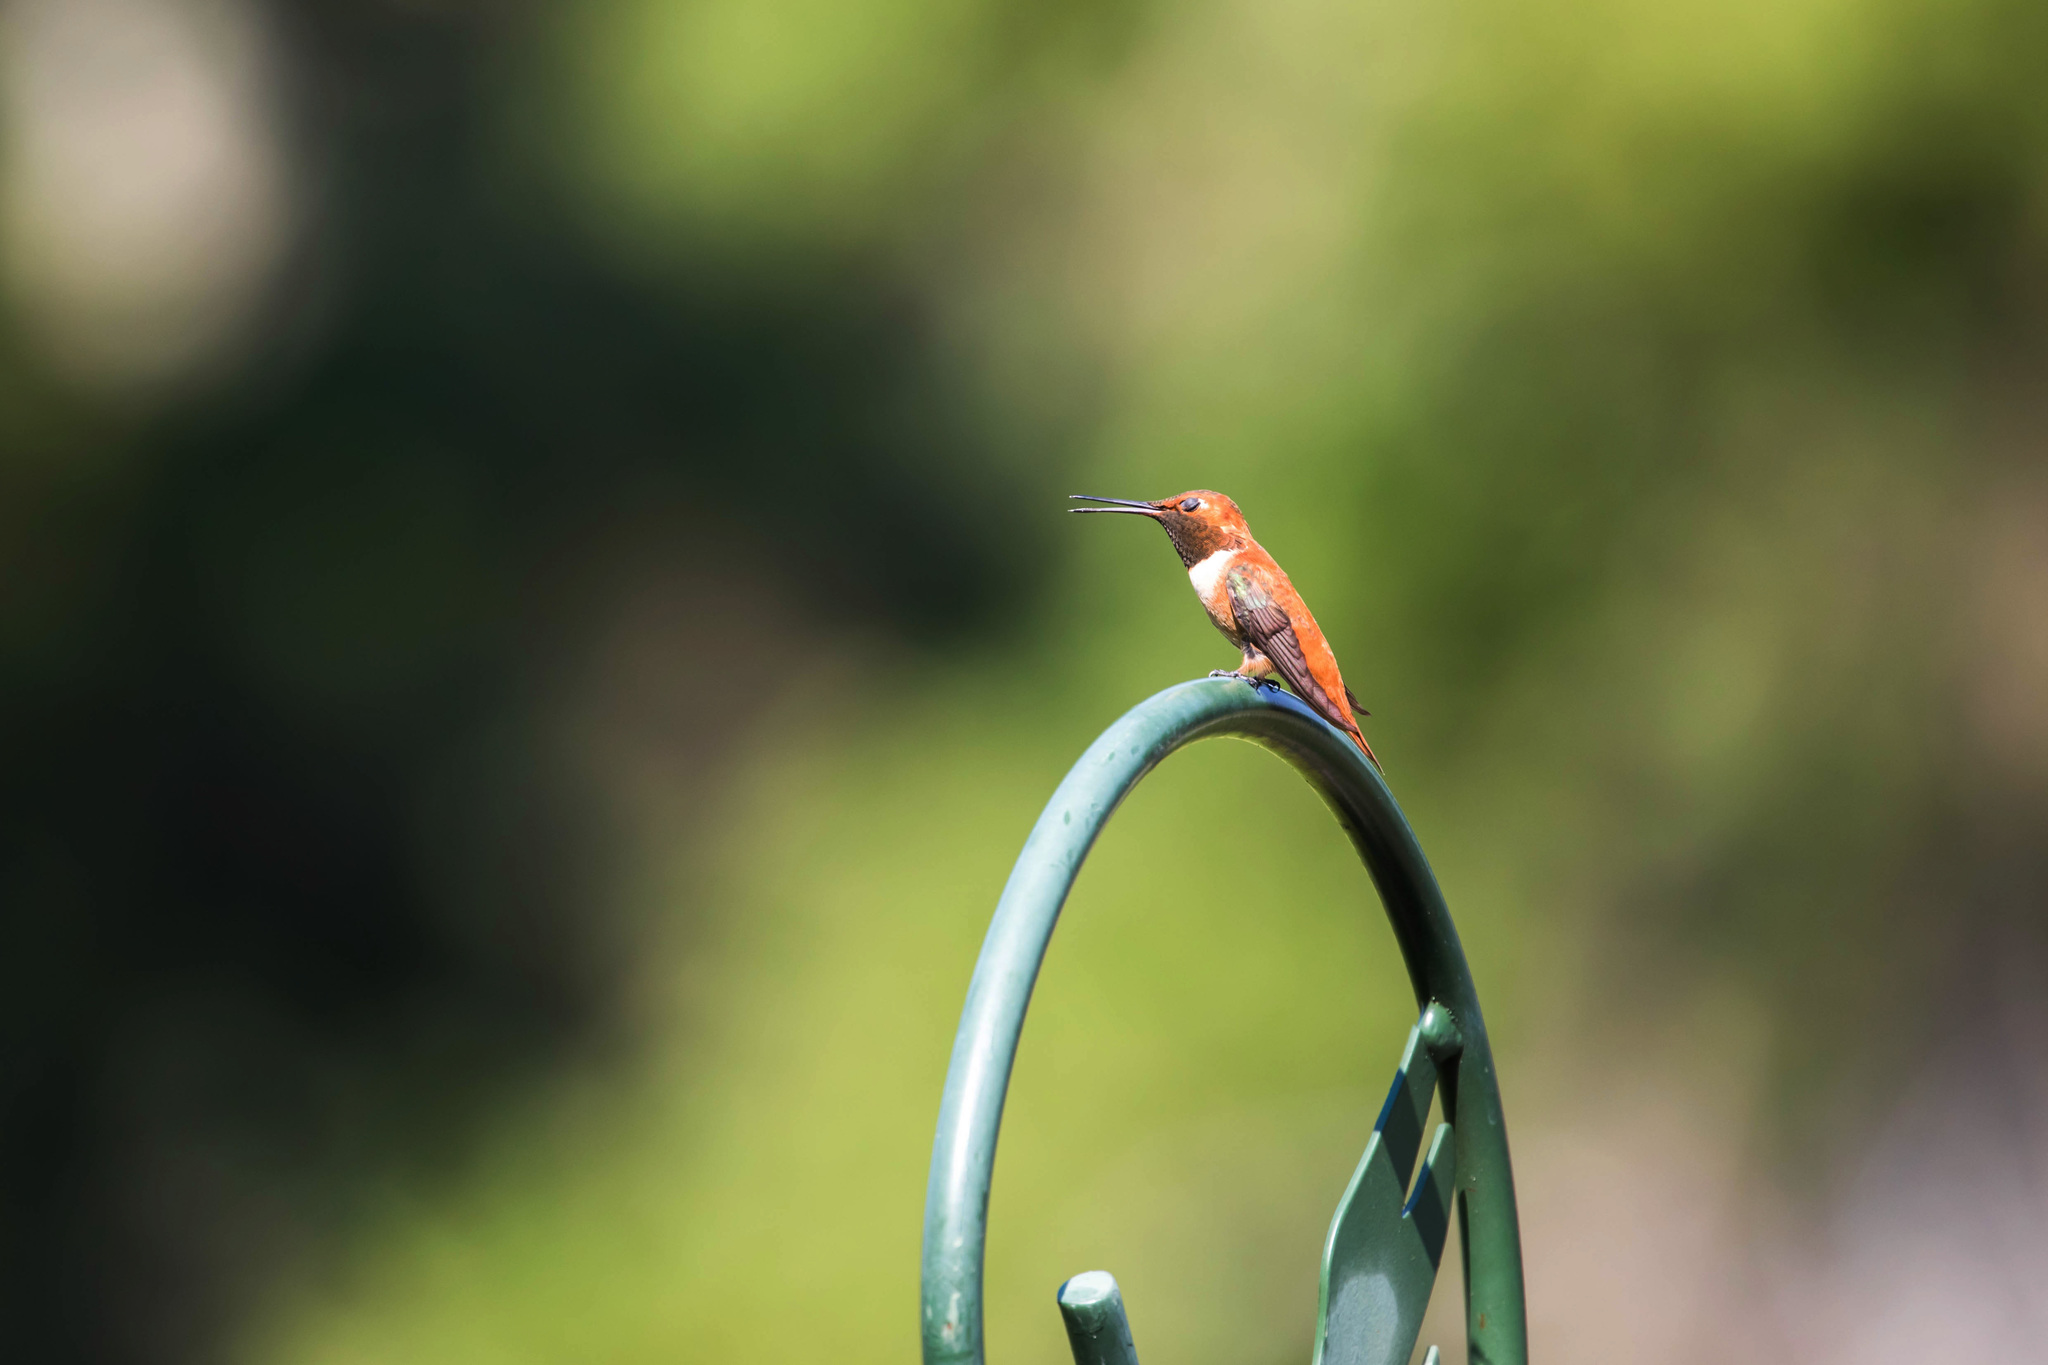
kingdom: Animalia
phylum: Chordata
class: Aves
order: Apodiformes
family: Trochilidae
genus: Selasphorus
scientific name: Selasphorus rufus
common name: Rufous hummingbird
